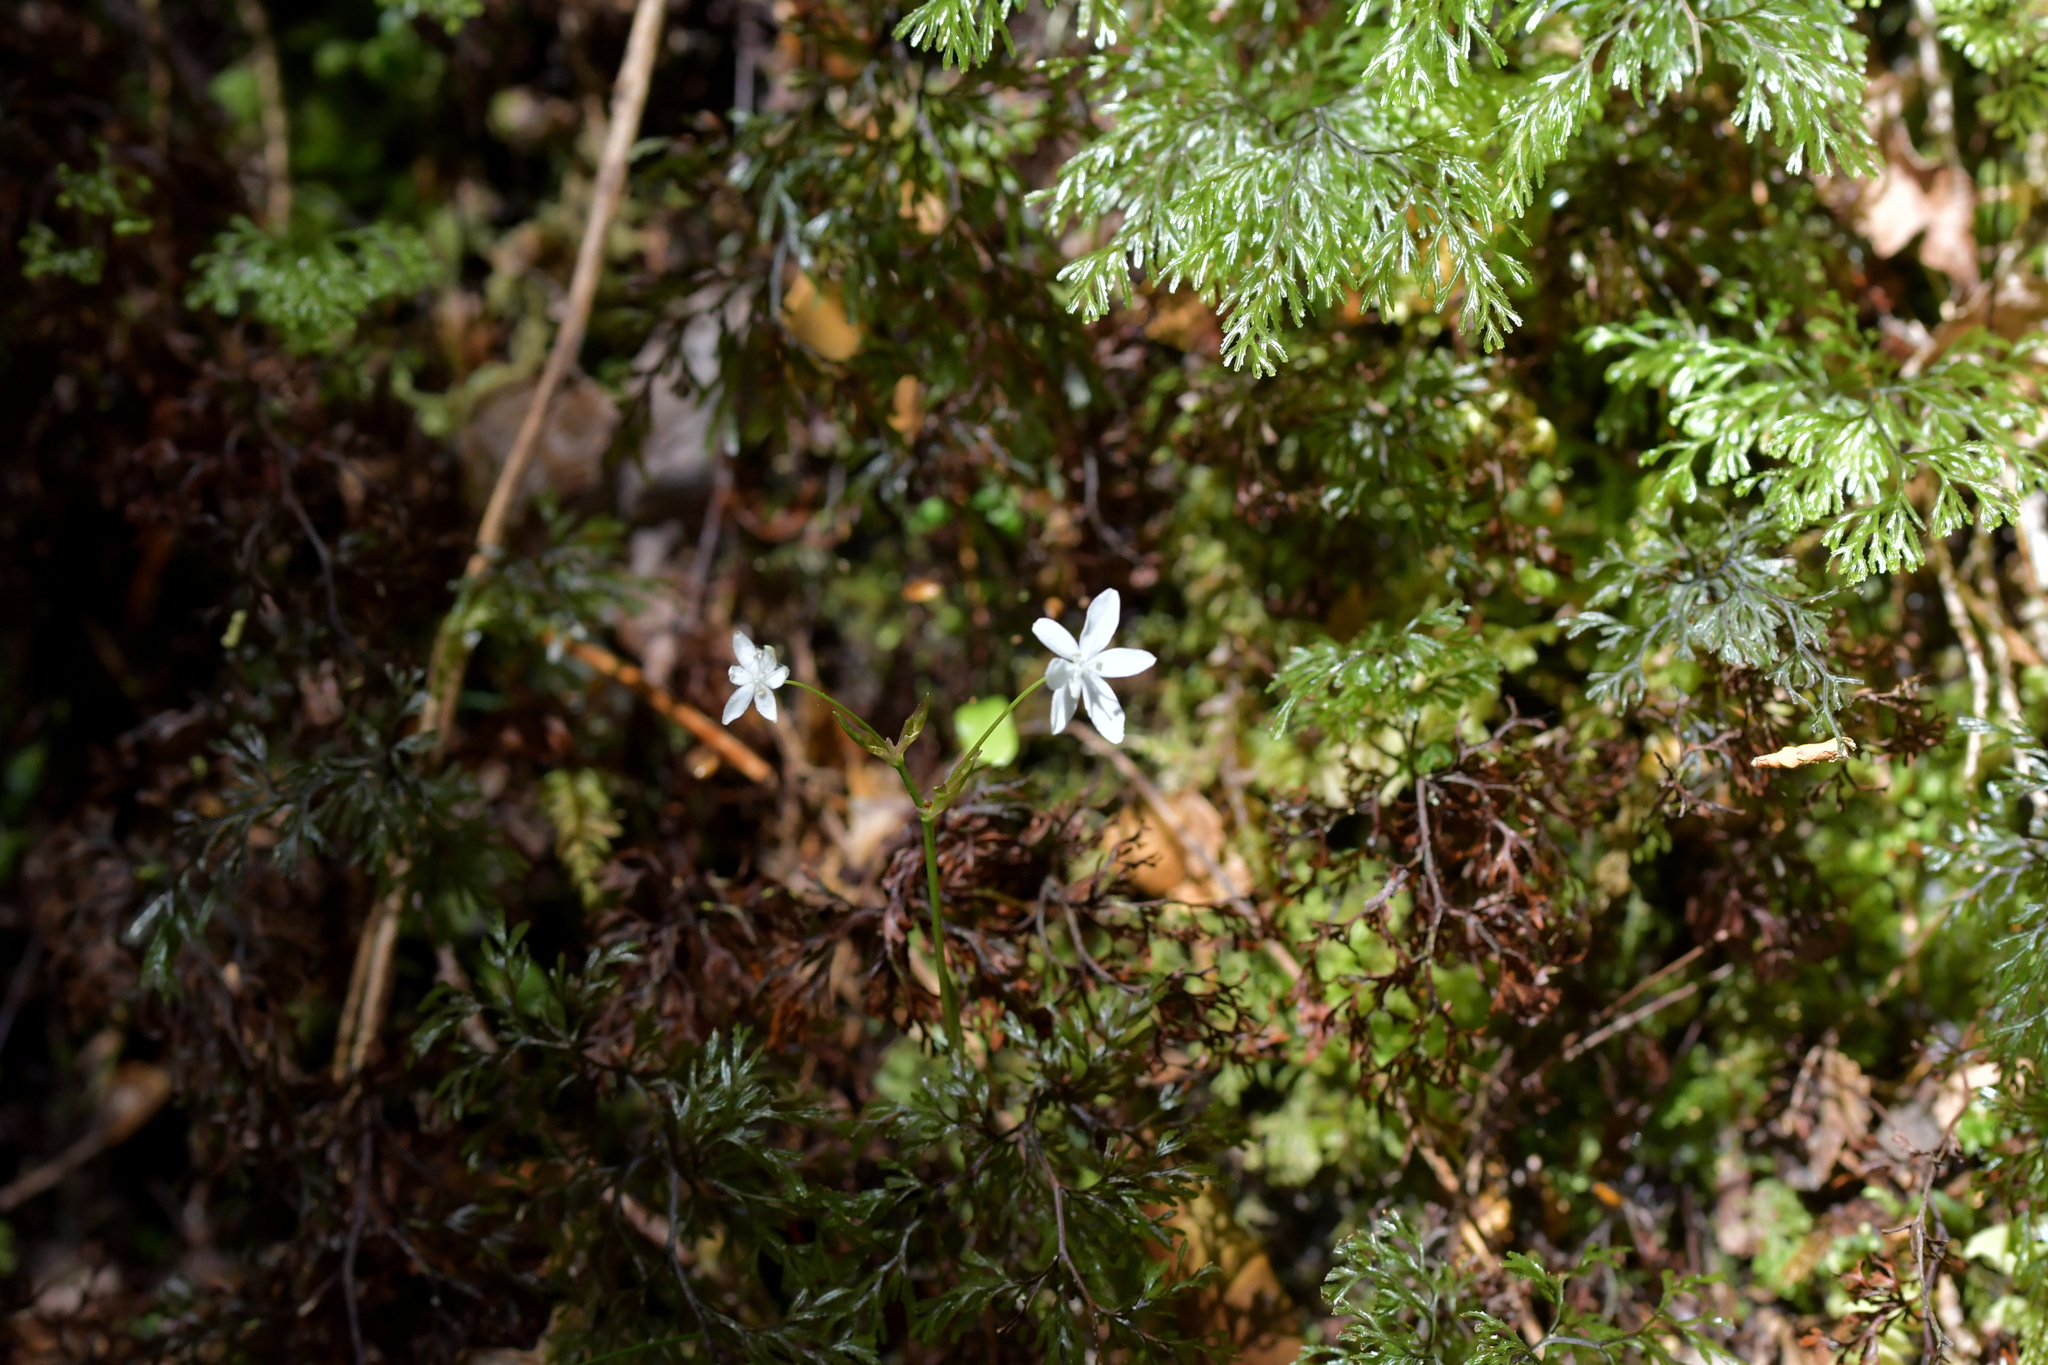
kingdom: Plantae
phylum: Tracheophyta
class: Liliopsida
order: Asparagales
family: Iridaceae
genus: Libertia
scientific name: Libertia micrantha
